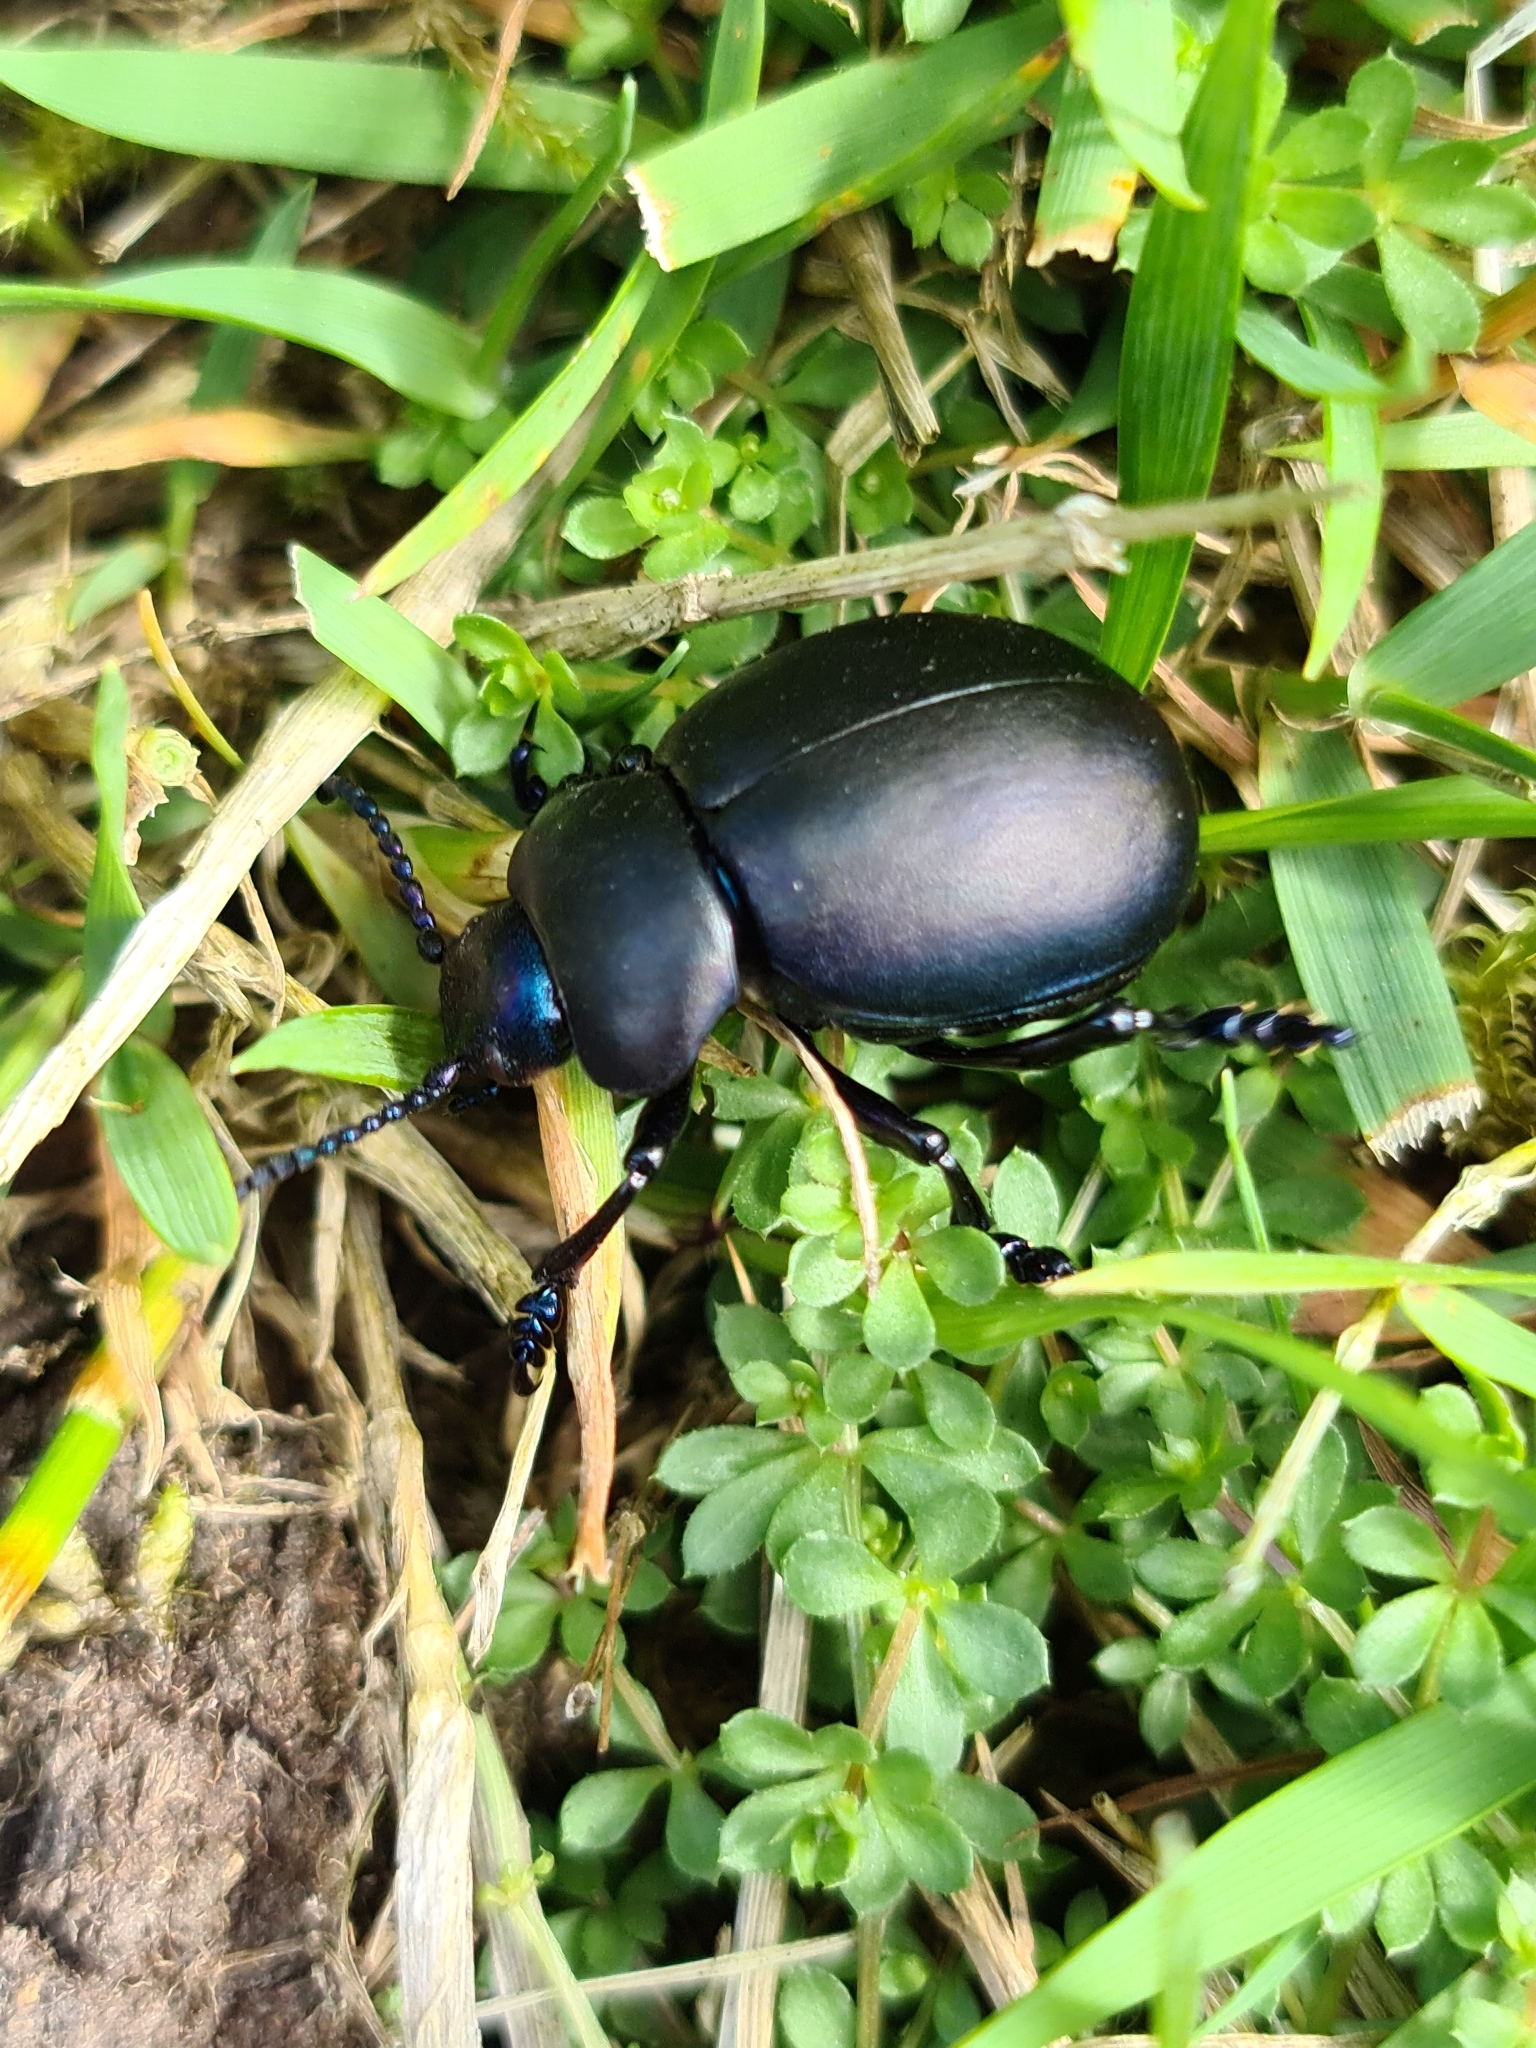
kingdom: Animalia
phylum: Arthropoda
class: Insecta
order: Coleoptera
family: Chrysomelidae
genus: Timarcha
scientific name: Timarcha tenebricosa
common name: Bloody-nosed beetle
